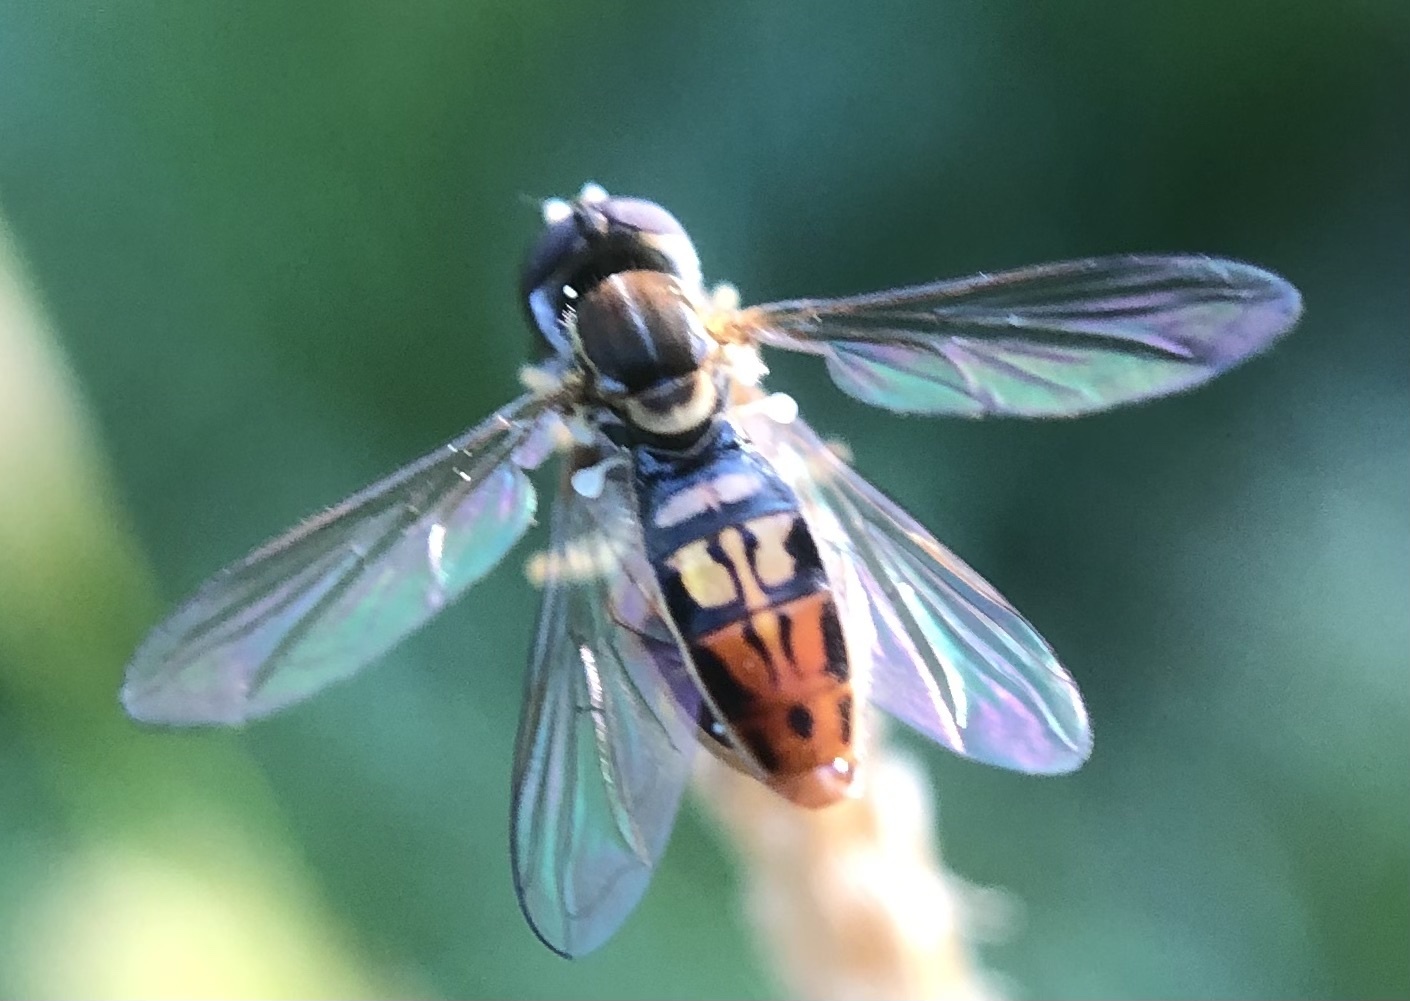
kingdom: Animalia
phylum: Arthropoda
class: Insecta
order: Diptera
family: Syrphidae
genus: Toxomerus
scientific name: Toxomerus marginatus
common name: Syrphid fly
